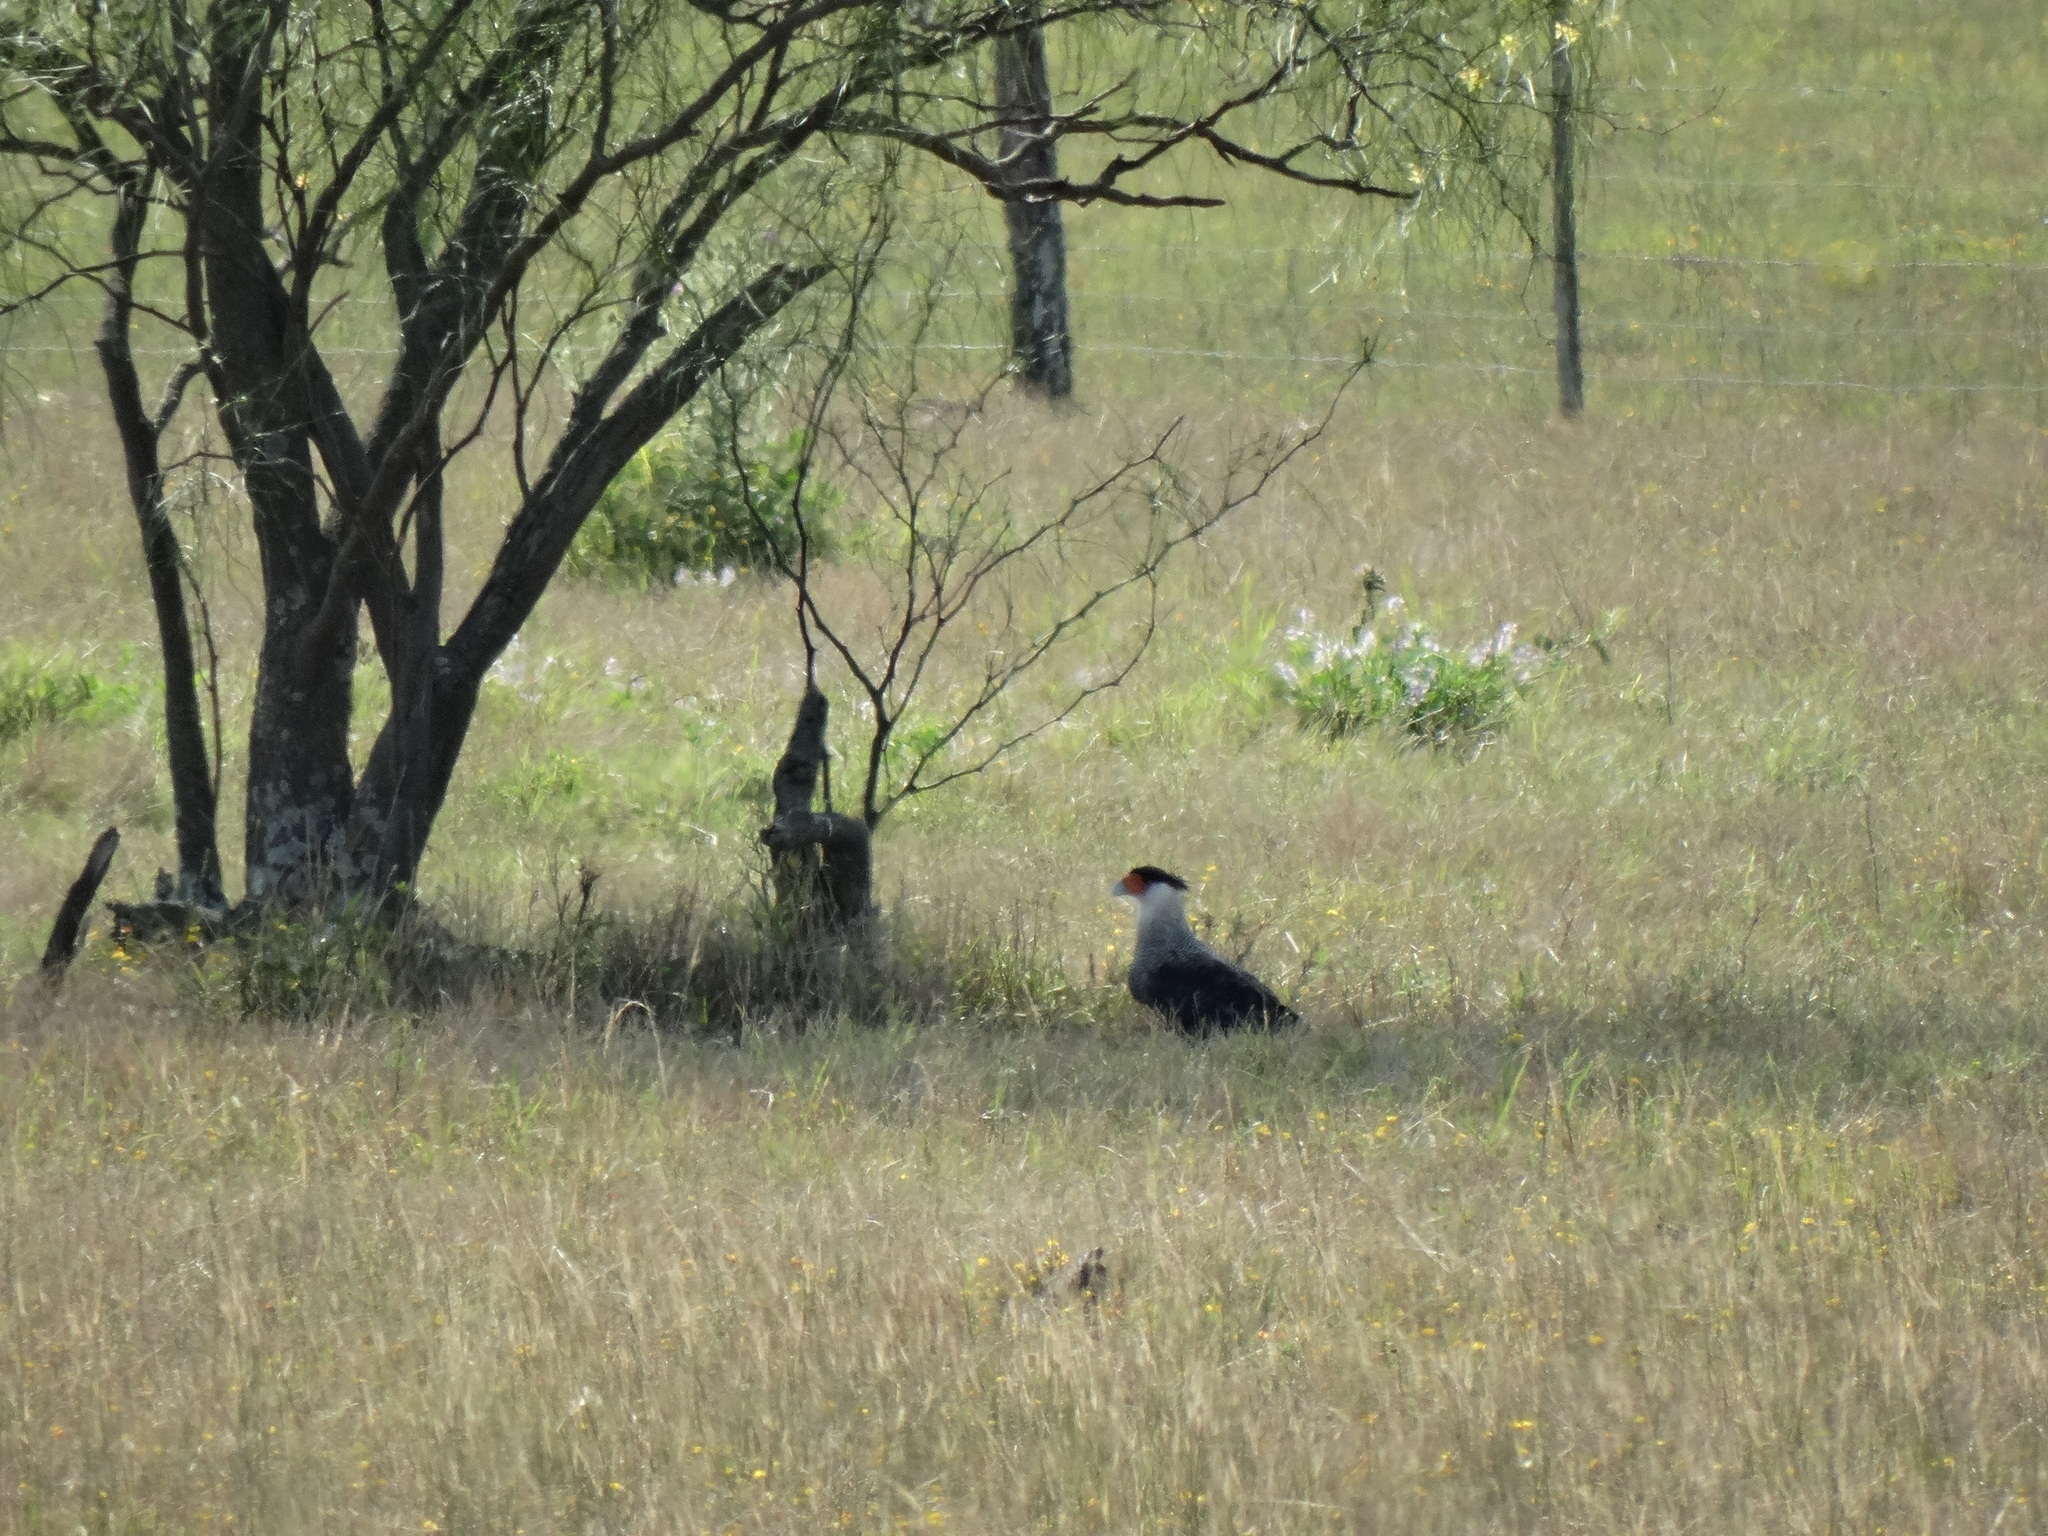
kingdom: Animalia
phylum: Chordata
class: Aves
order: Falconiformes
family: Falconidae
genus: Caracara
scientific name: Caracara plancus
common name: Southern caracara
